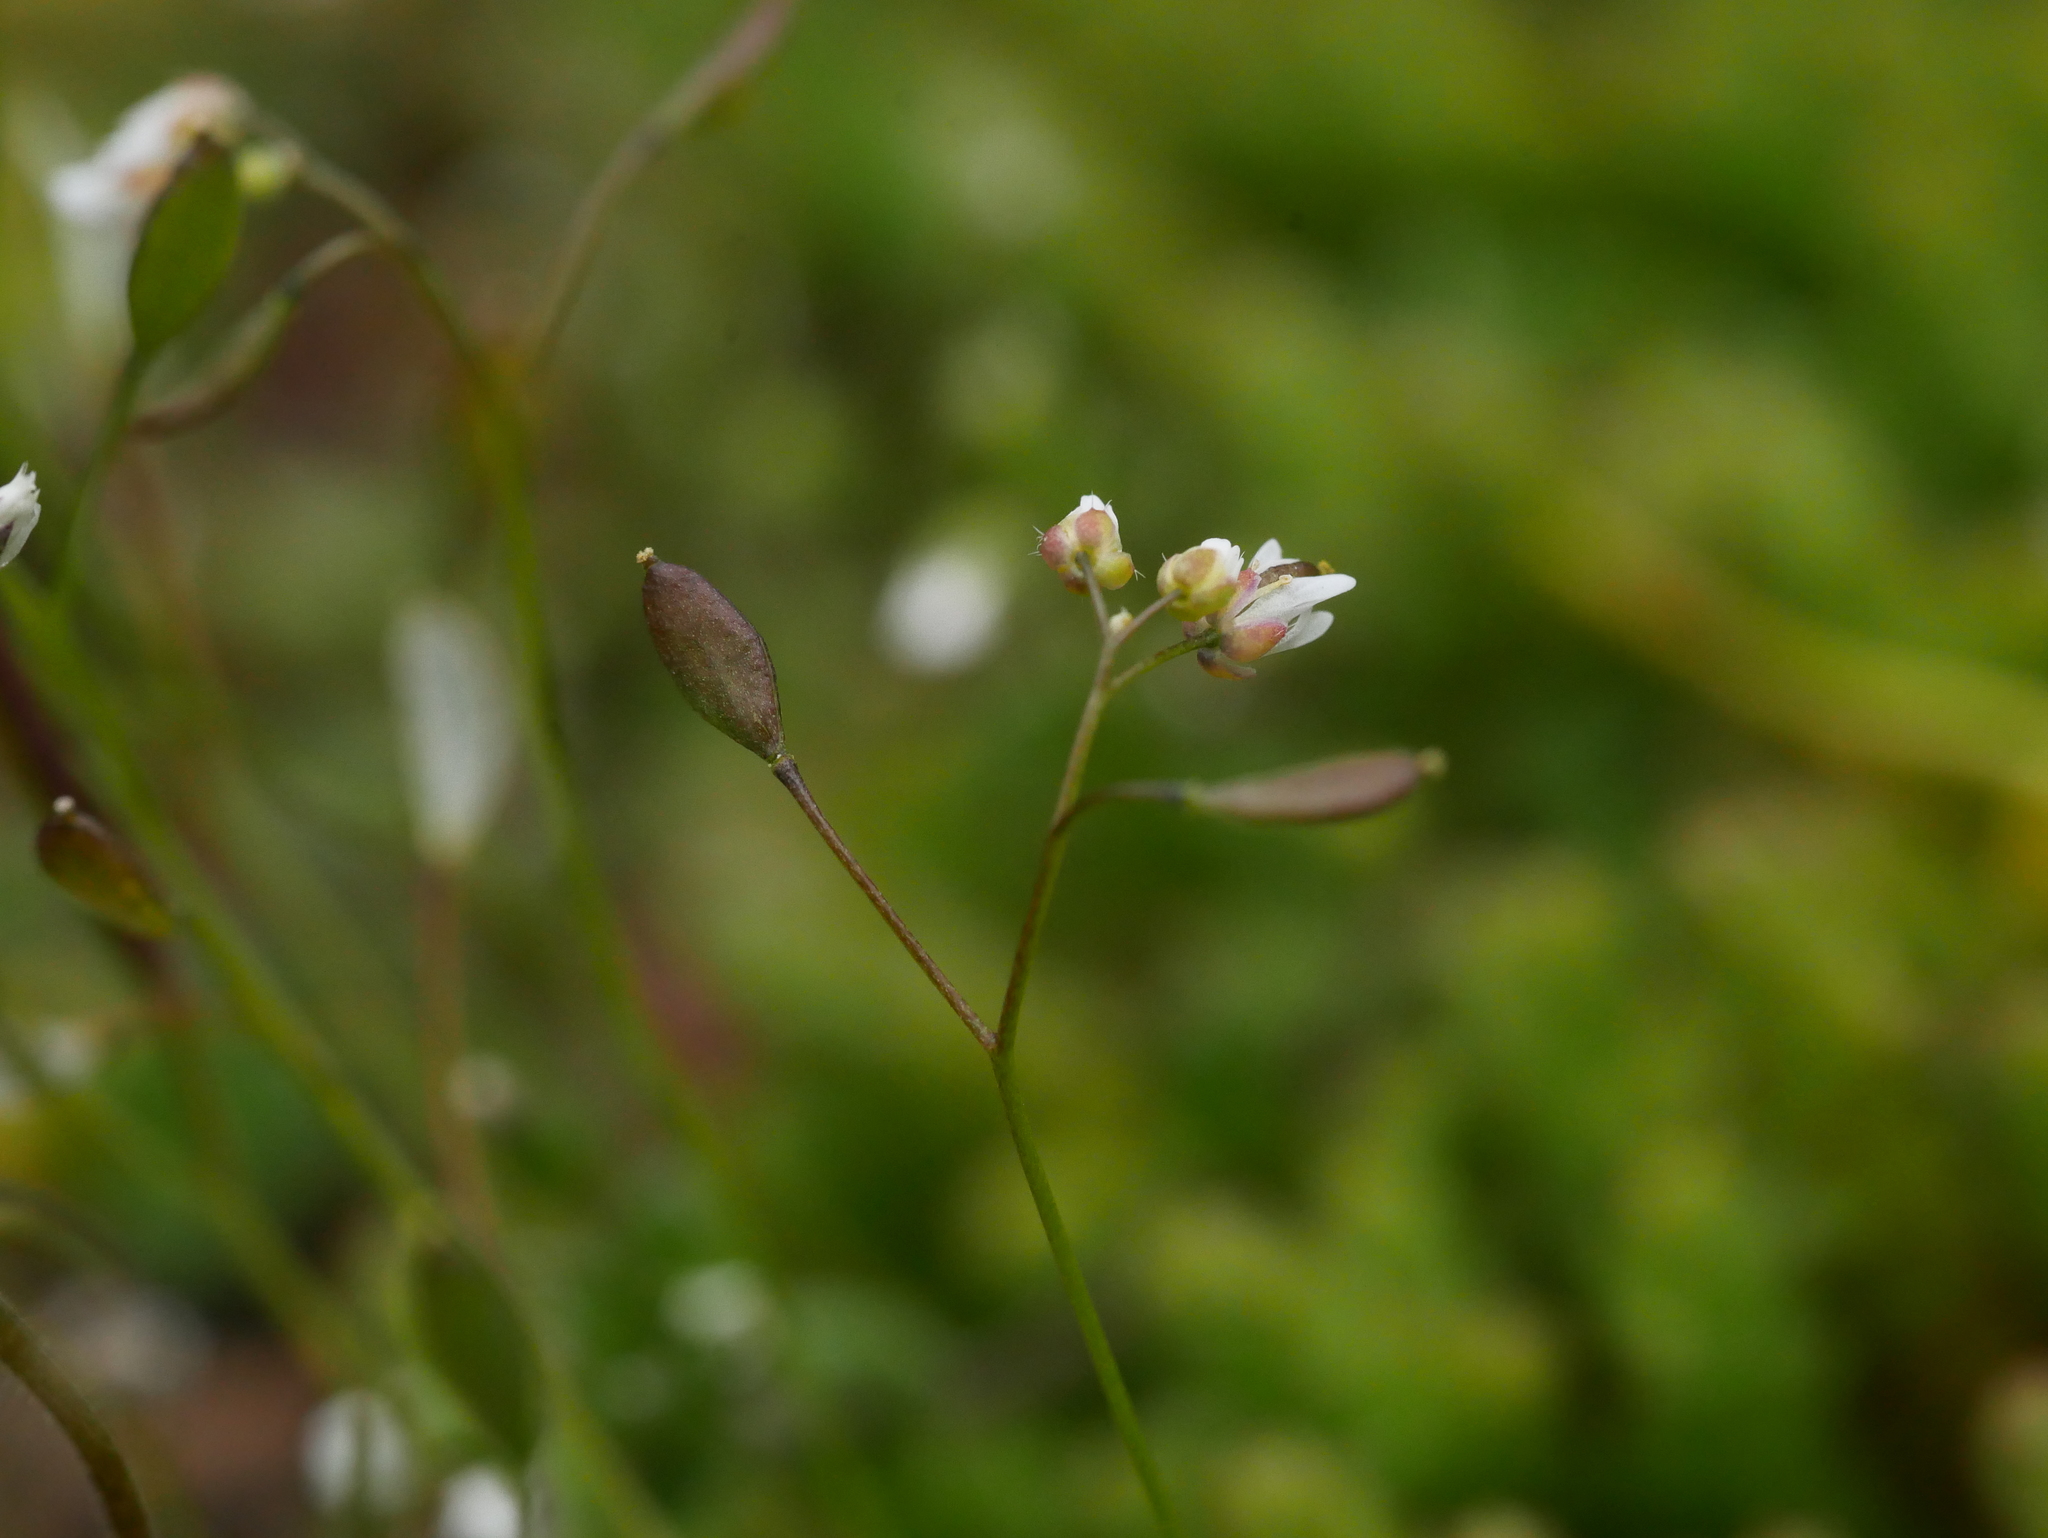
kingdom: Plantae
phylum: Tracheophyta
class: Magnoliopsida
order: Brassicales
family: Brassicaceae
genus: Draba
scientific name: Draba verna
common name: Spring draba
